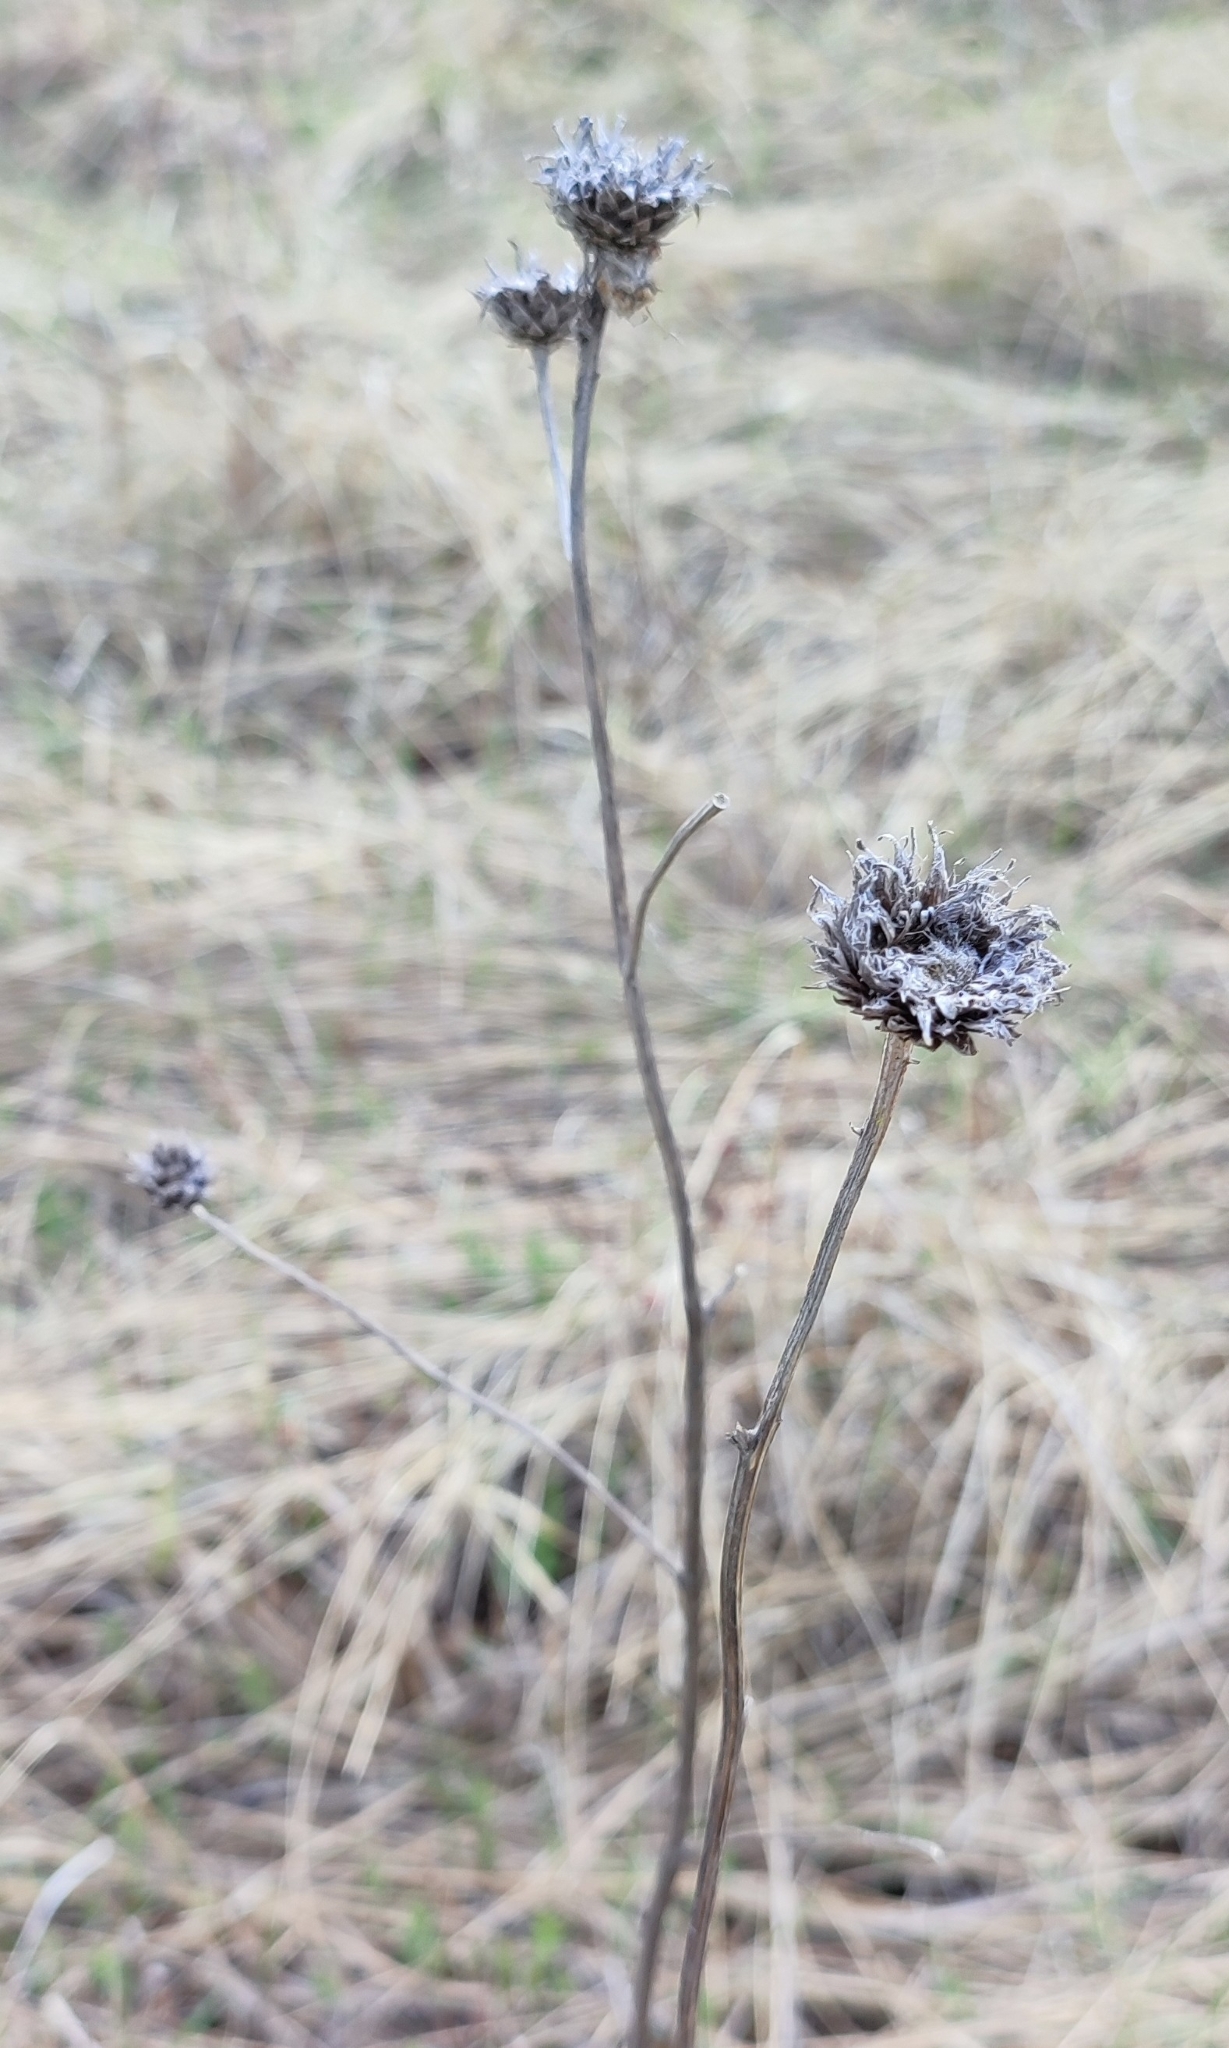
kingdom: Plantae
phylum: Tracheophyta
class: Magnoliopsida
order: Asterales
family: Asteraceae
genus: Serratula
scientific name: Serratula coronata
